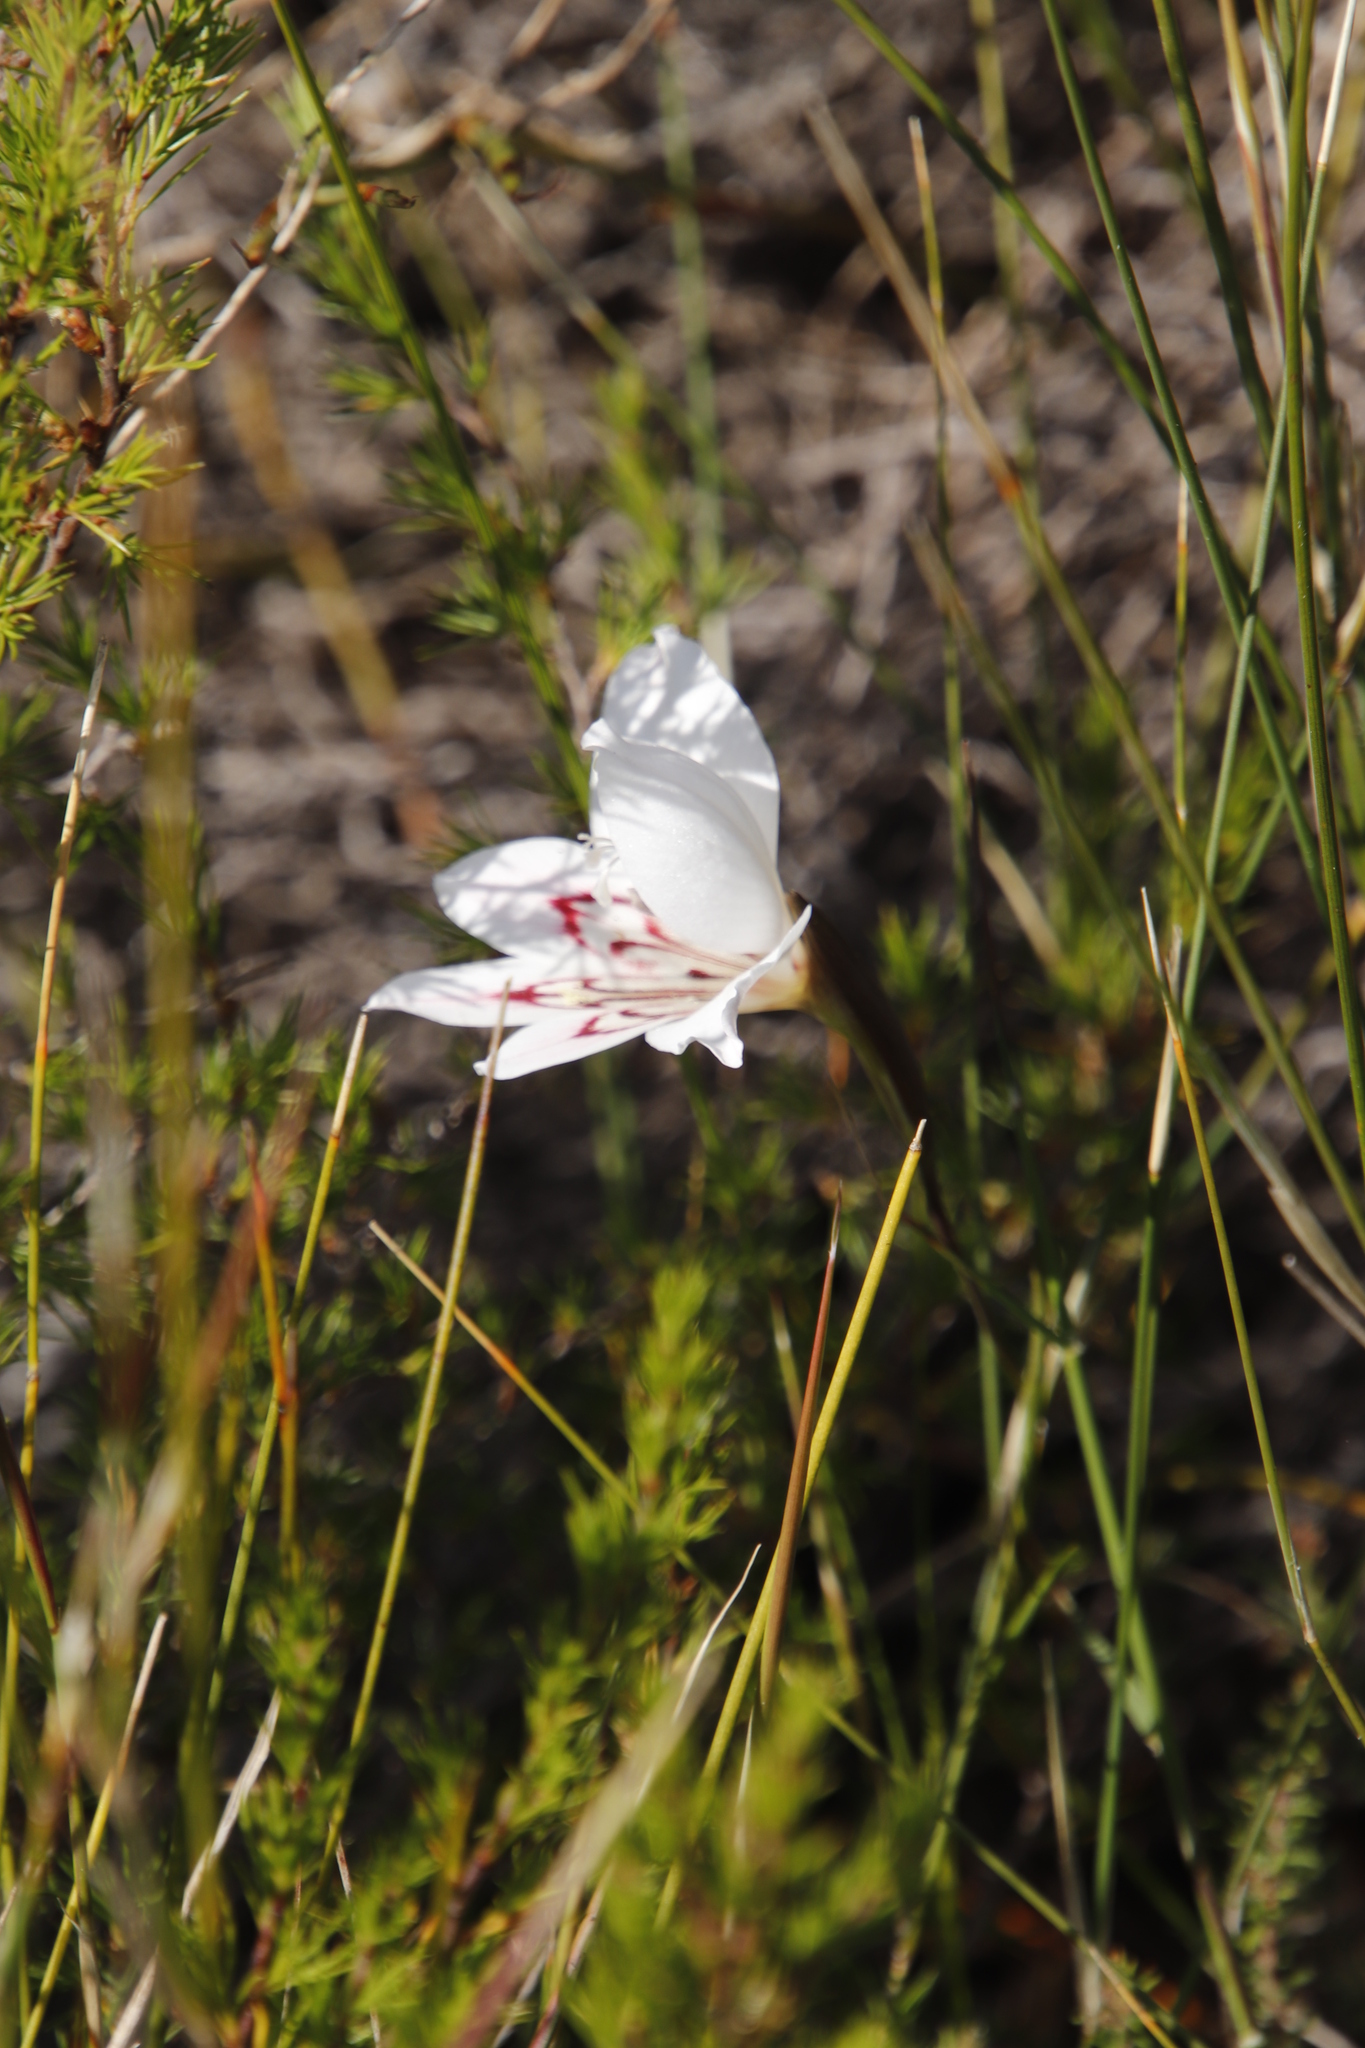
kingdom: Plantae
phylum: Tracheophyta
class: Liliopsida
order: Asparagales
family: Iridaceae
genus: Gladiolus
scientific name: Gladiolus debilis
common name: Painted-lady
